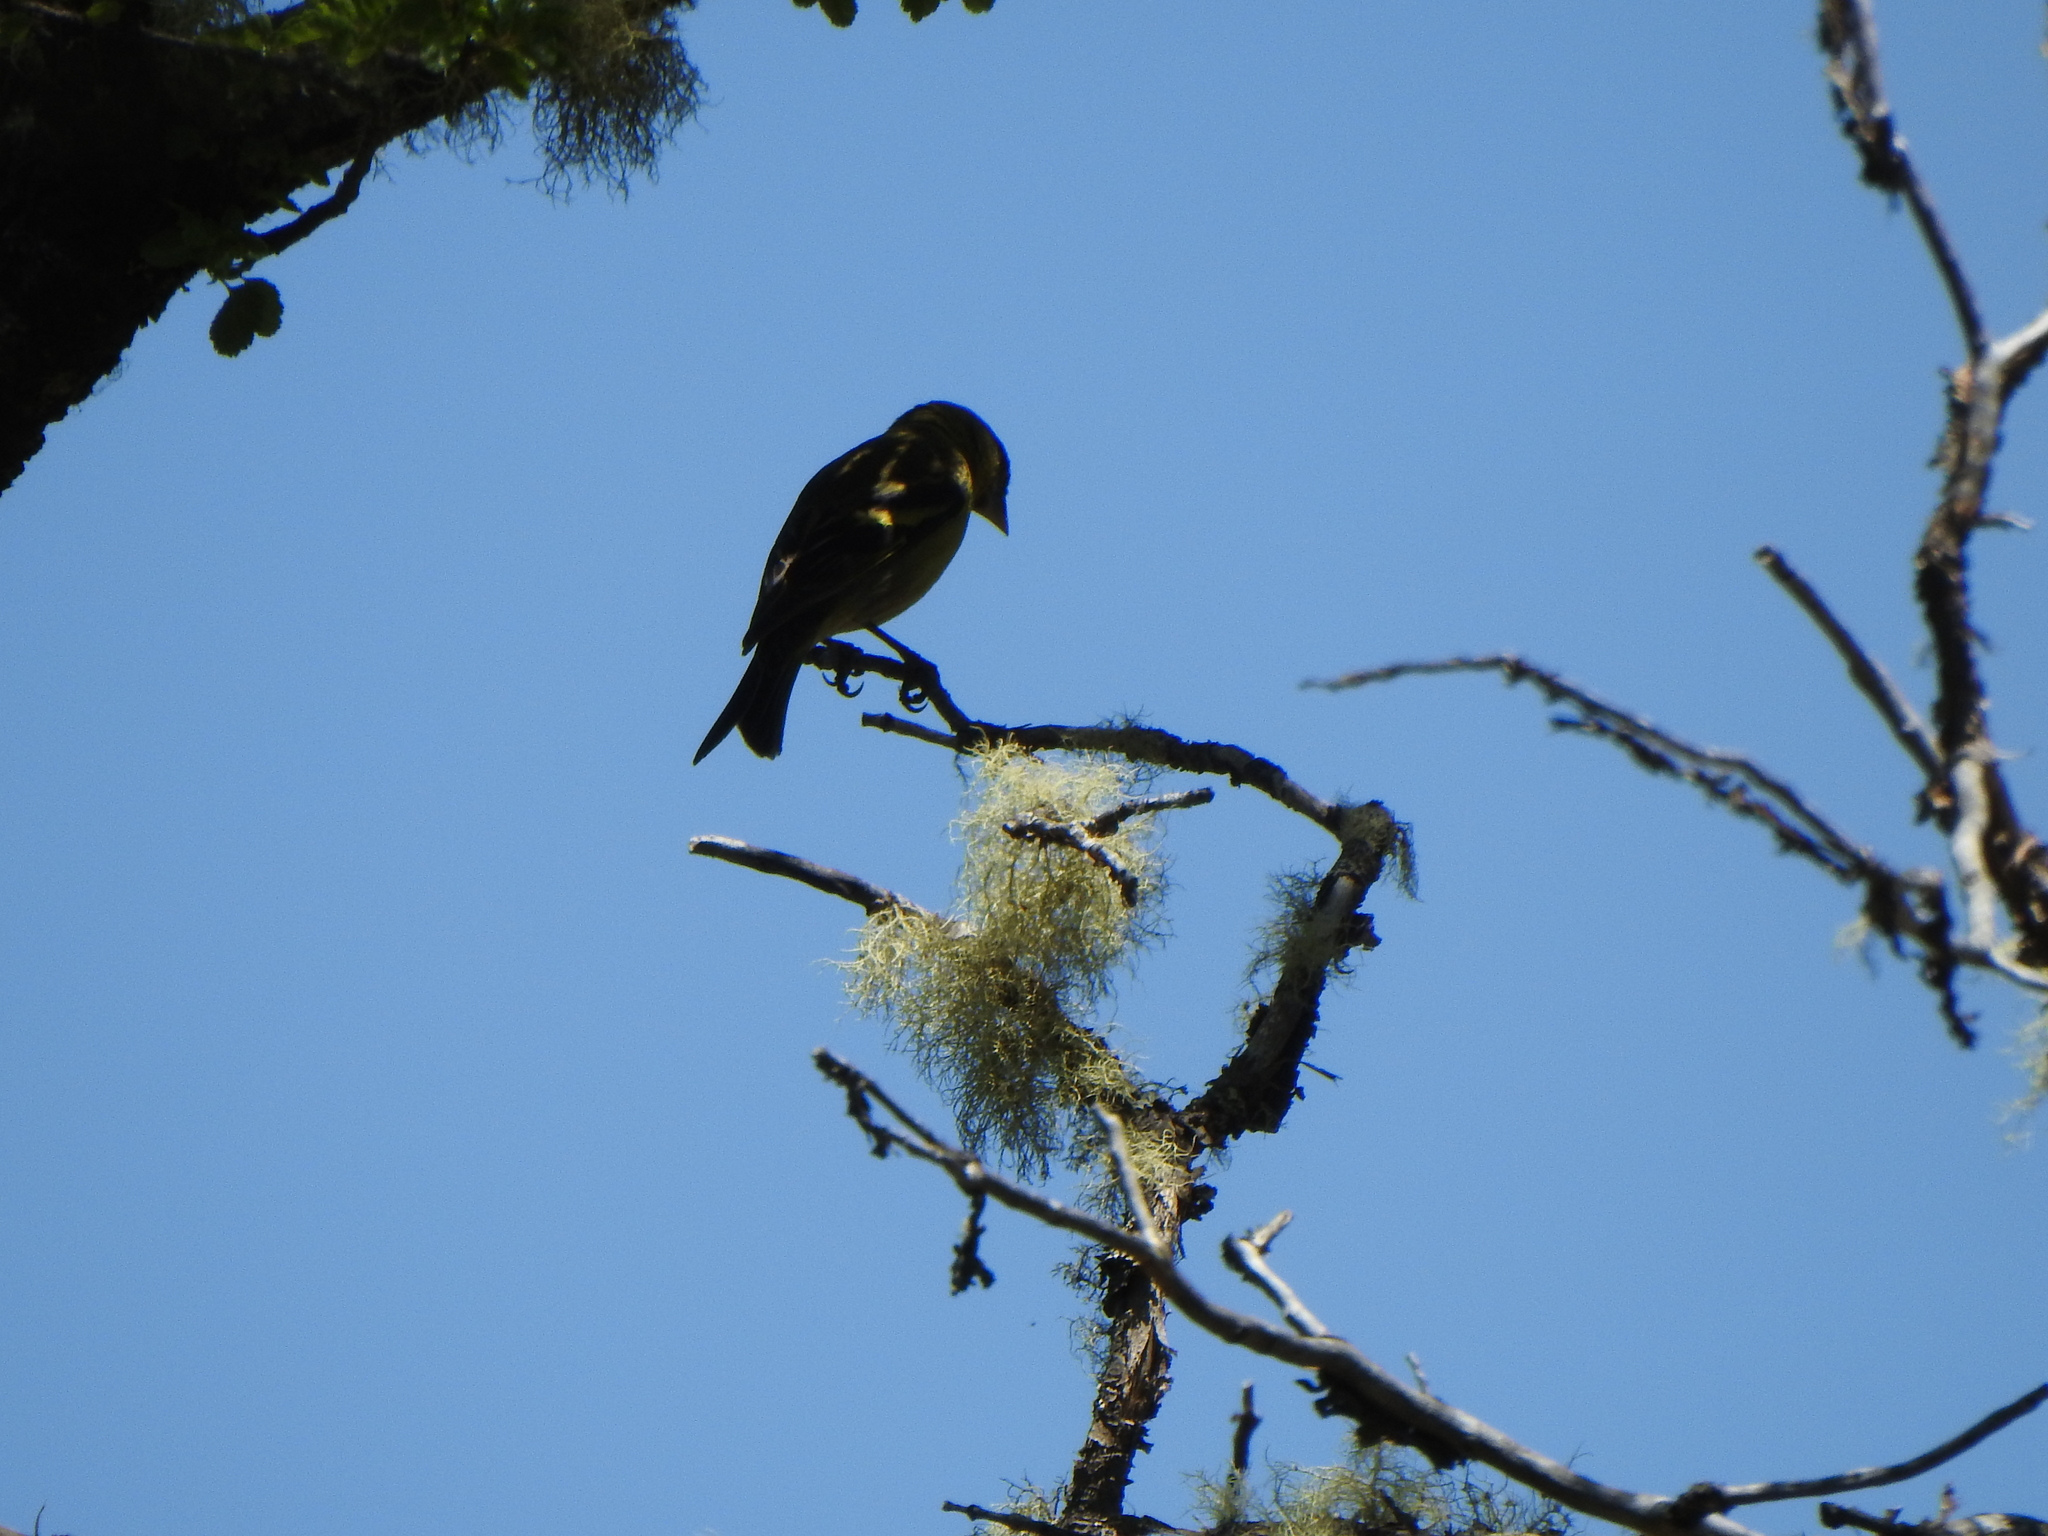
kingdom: Animalia
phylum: Chordata
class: Aves
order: Passeriformes
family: Fringillidae
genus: Spinus
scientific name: Spinus barbatus
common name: Black-chinned siskin
